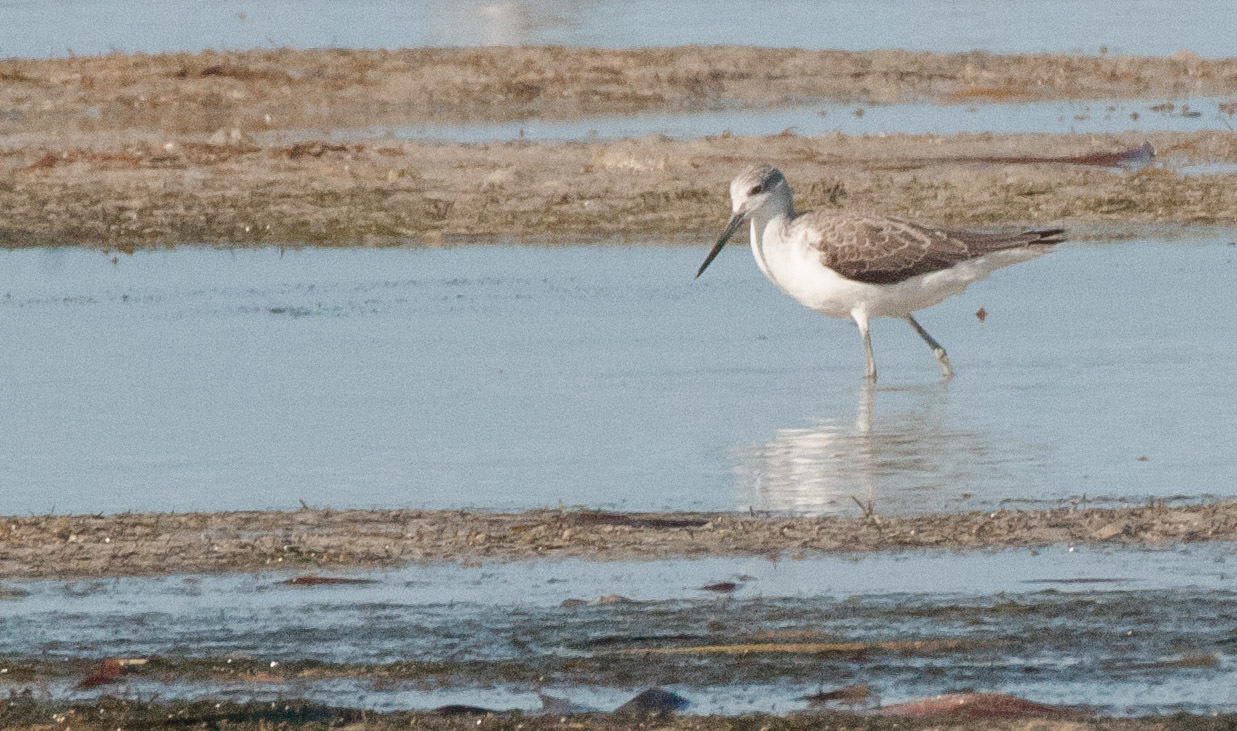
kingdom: Animalia
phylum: Chordata
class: Aves
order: Charadriiformes
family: Scolopacidae
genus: Tringa
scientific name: Tringa nebularia
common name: Common greenshank
